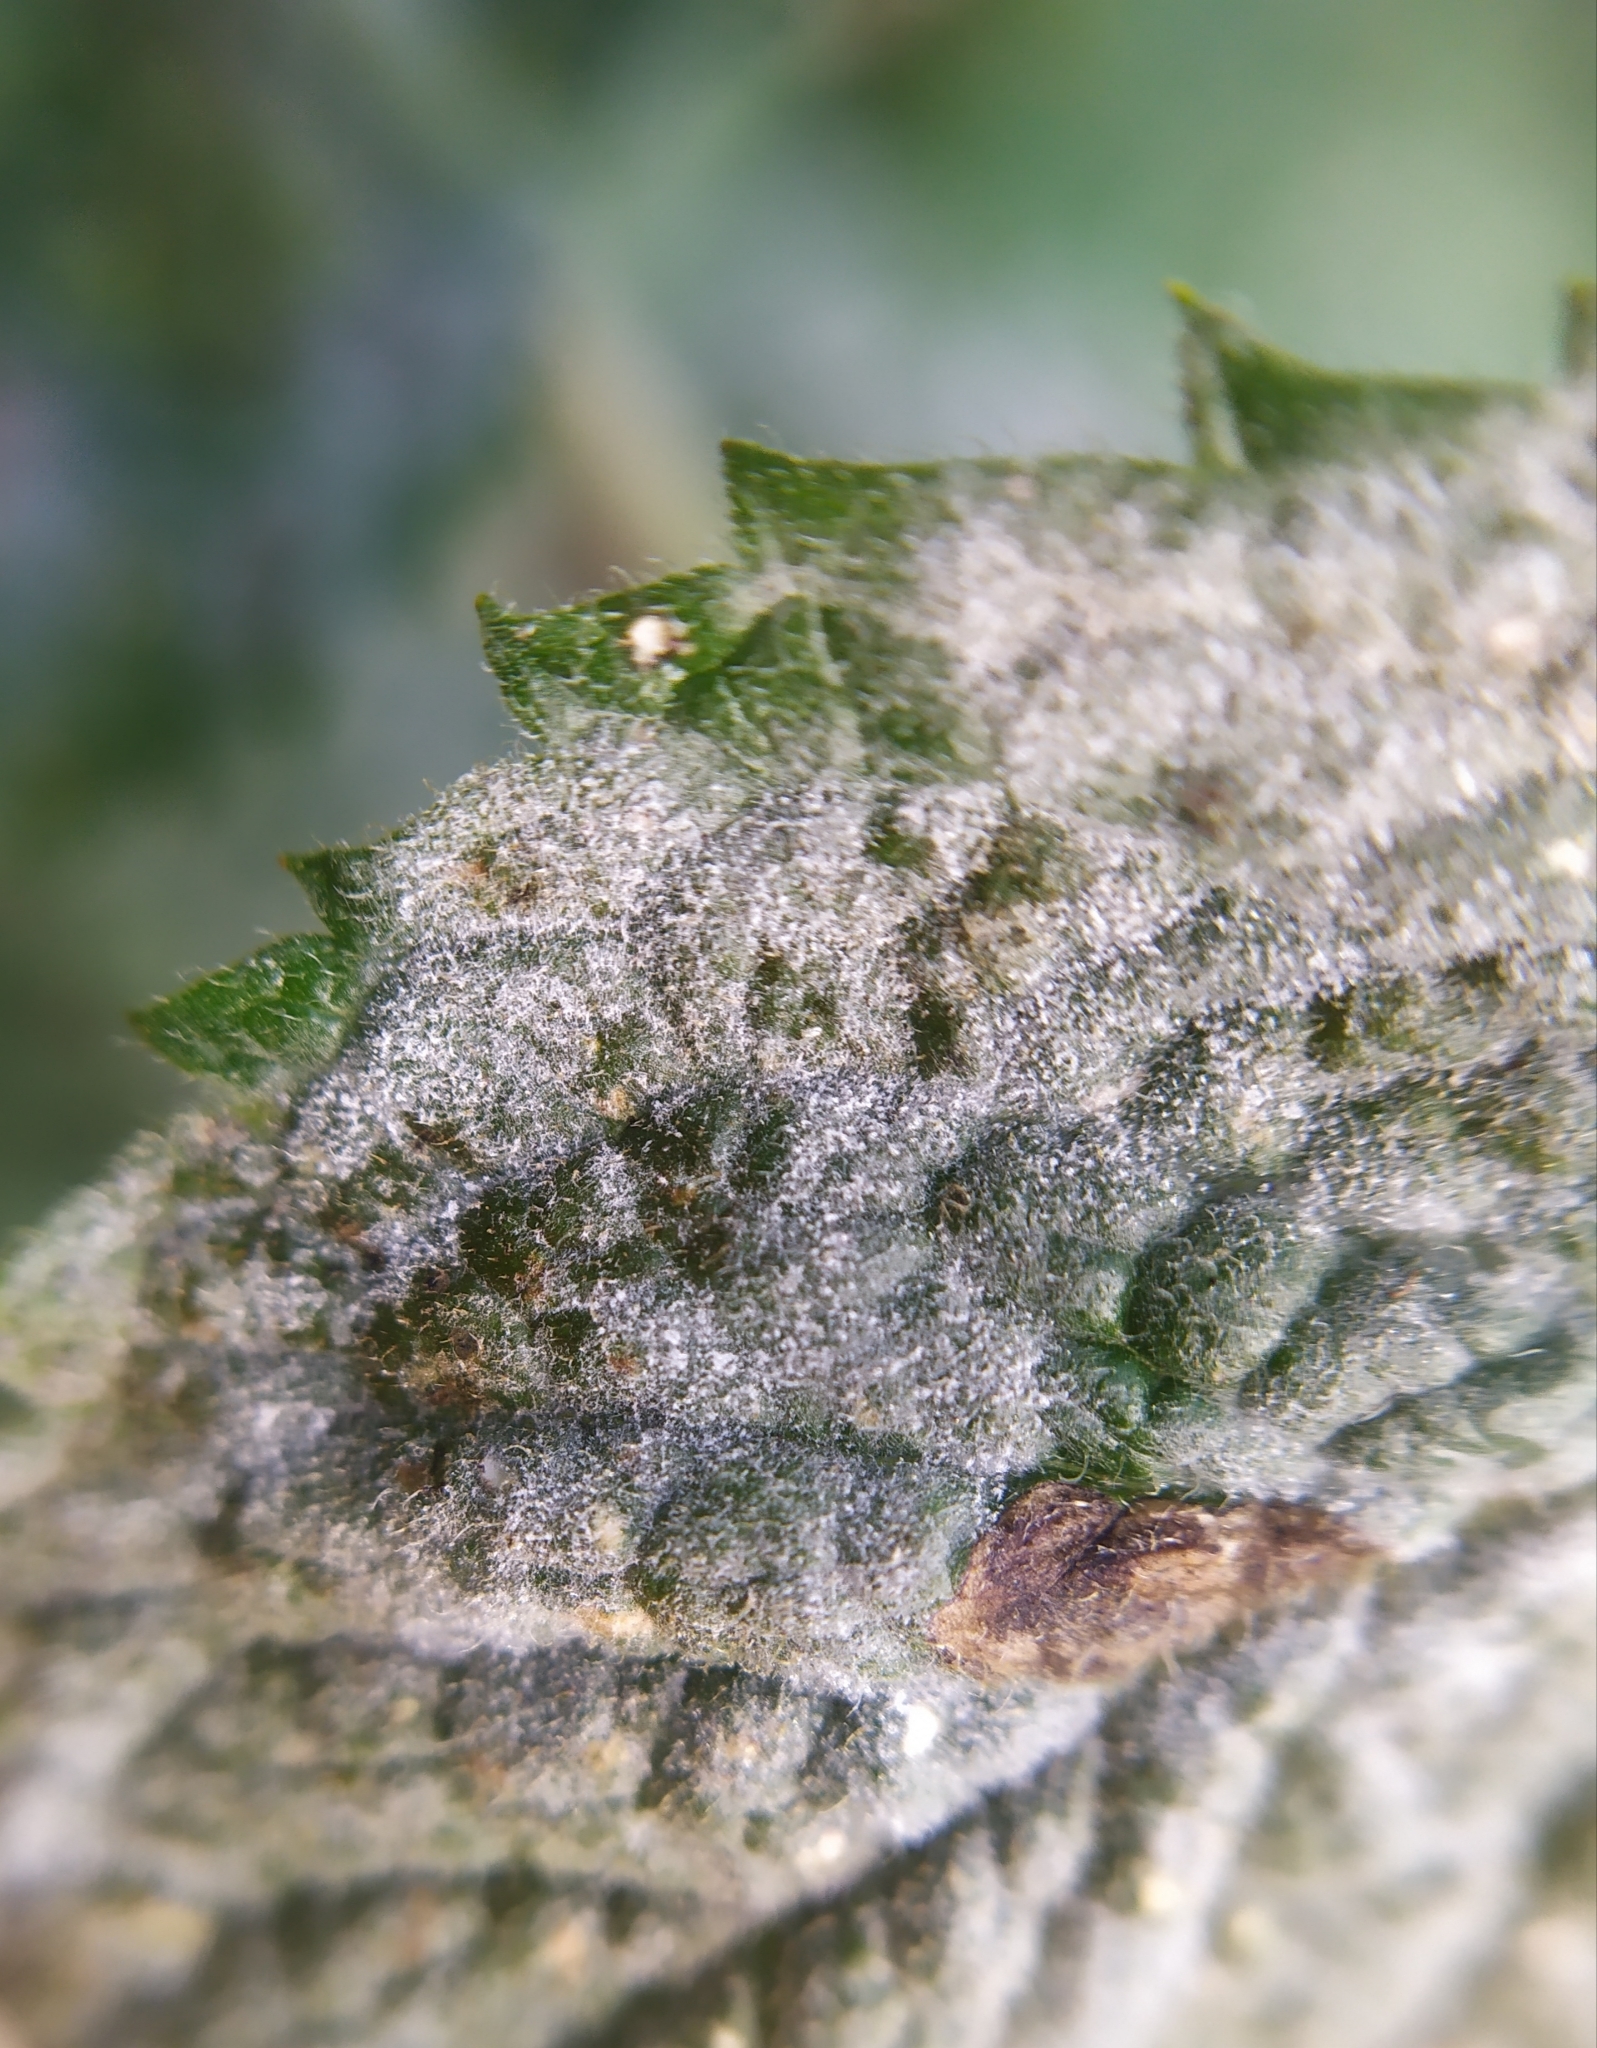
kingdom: Fungi
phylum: Ascomycota
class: Leotiomycetes
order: Helotiales
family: Erysiphaceae
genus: Golovinomyces
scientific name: Golovinomyces monardae
